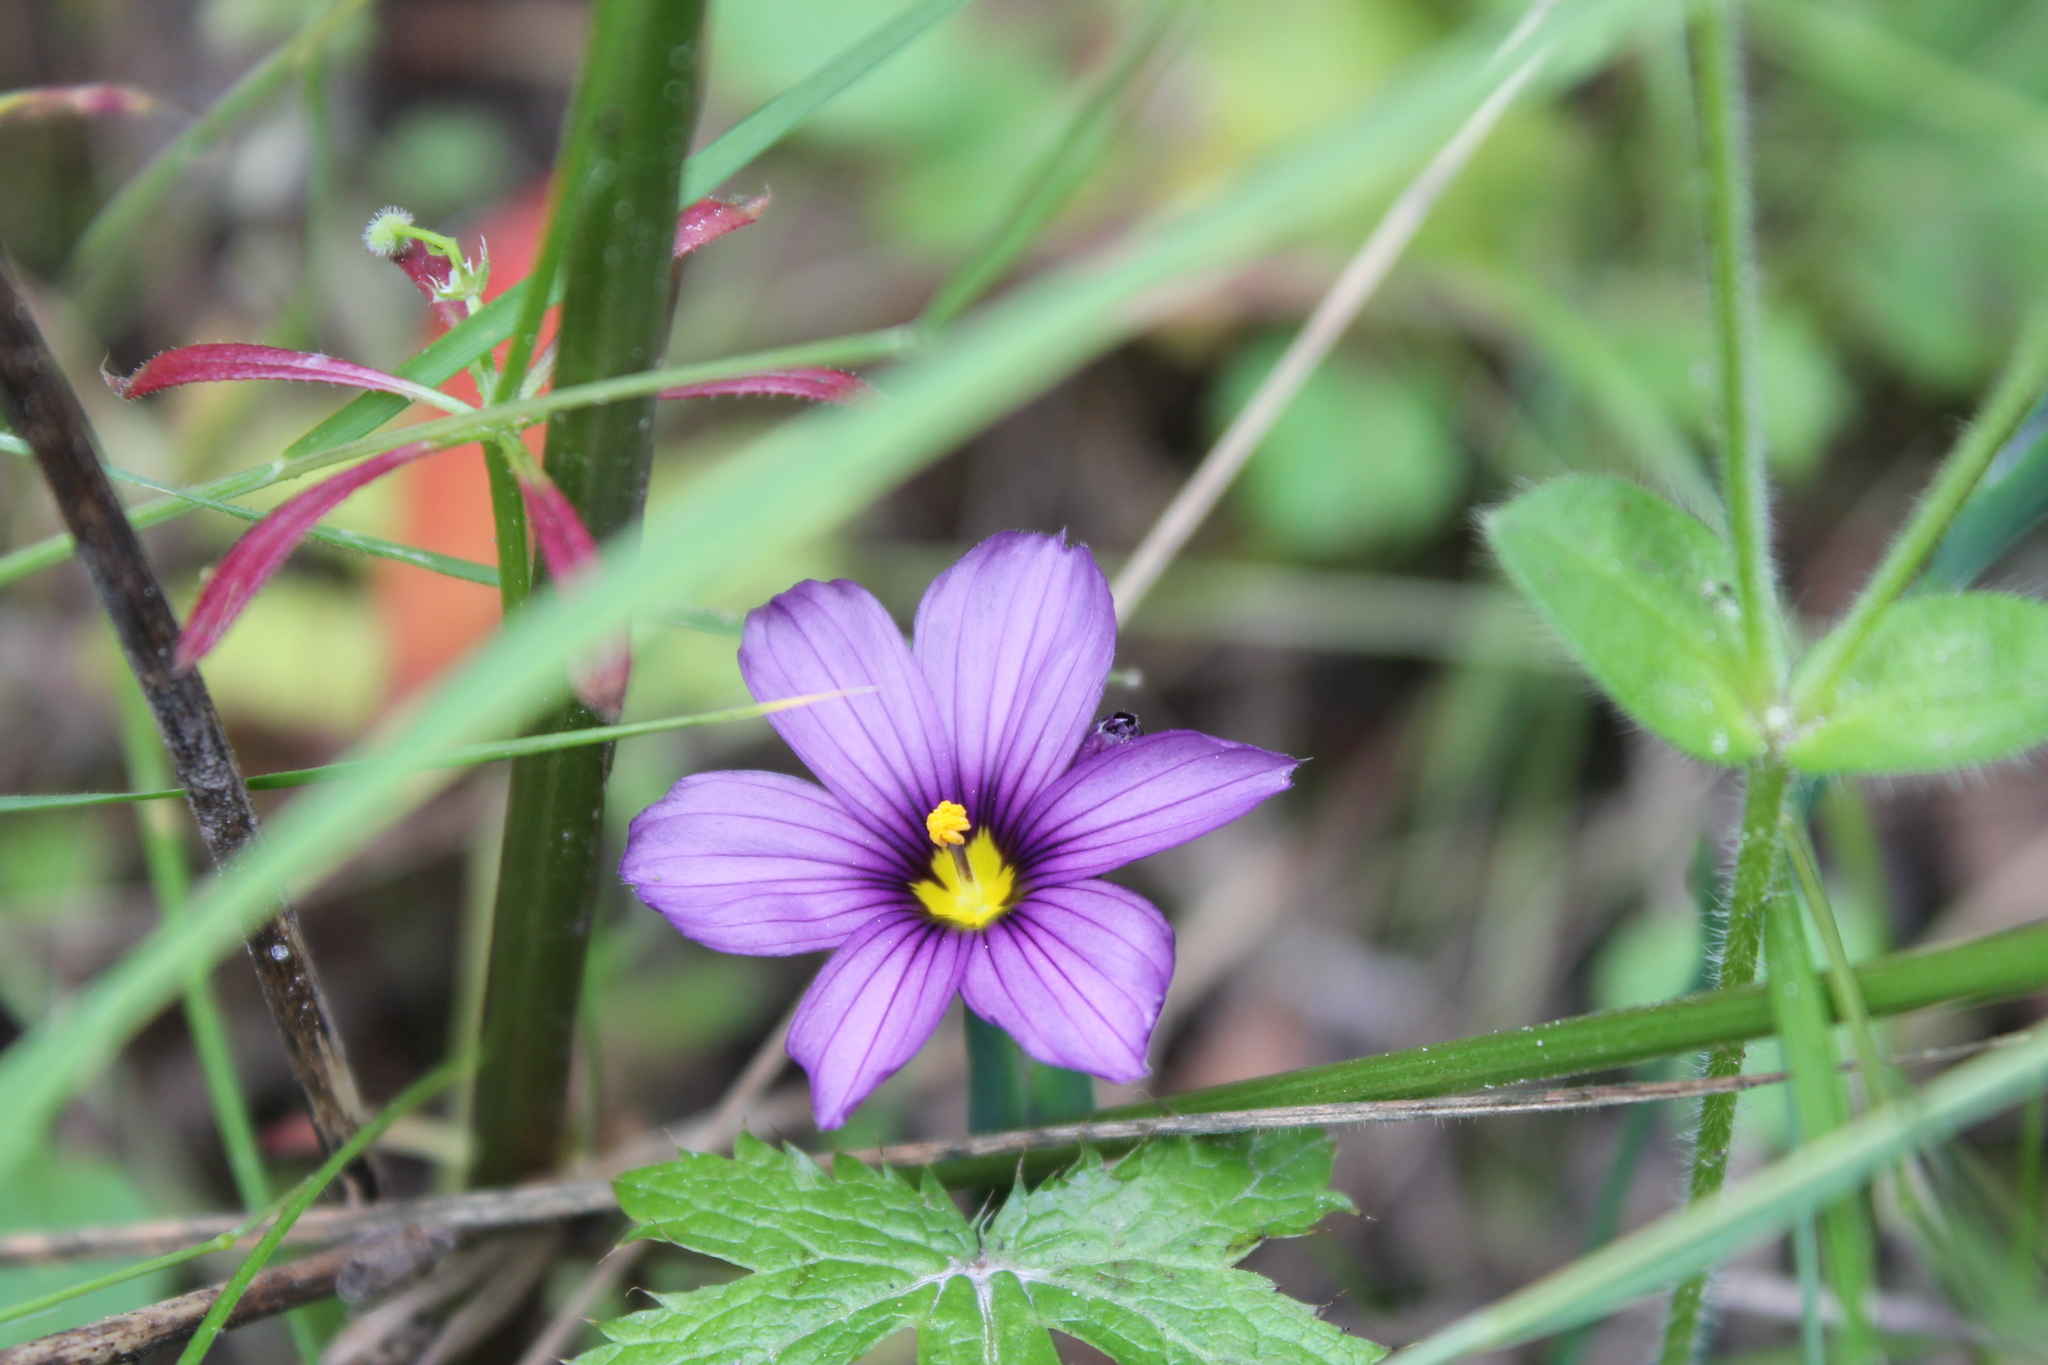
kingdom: Plantae
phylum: Tracheophyta
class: Liliopsida
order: Asparagales
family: Iridaceae
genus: Sisyrinchium
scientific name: Sisyrinchium bellum
